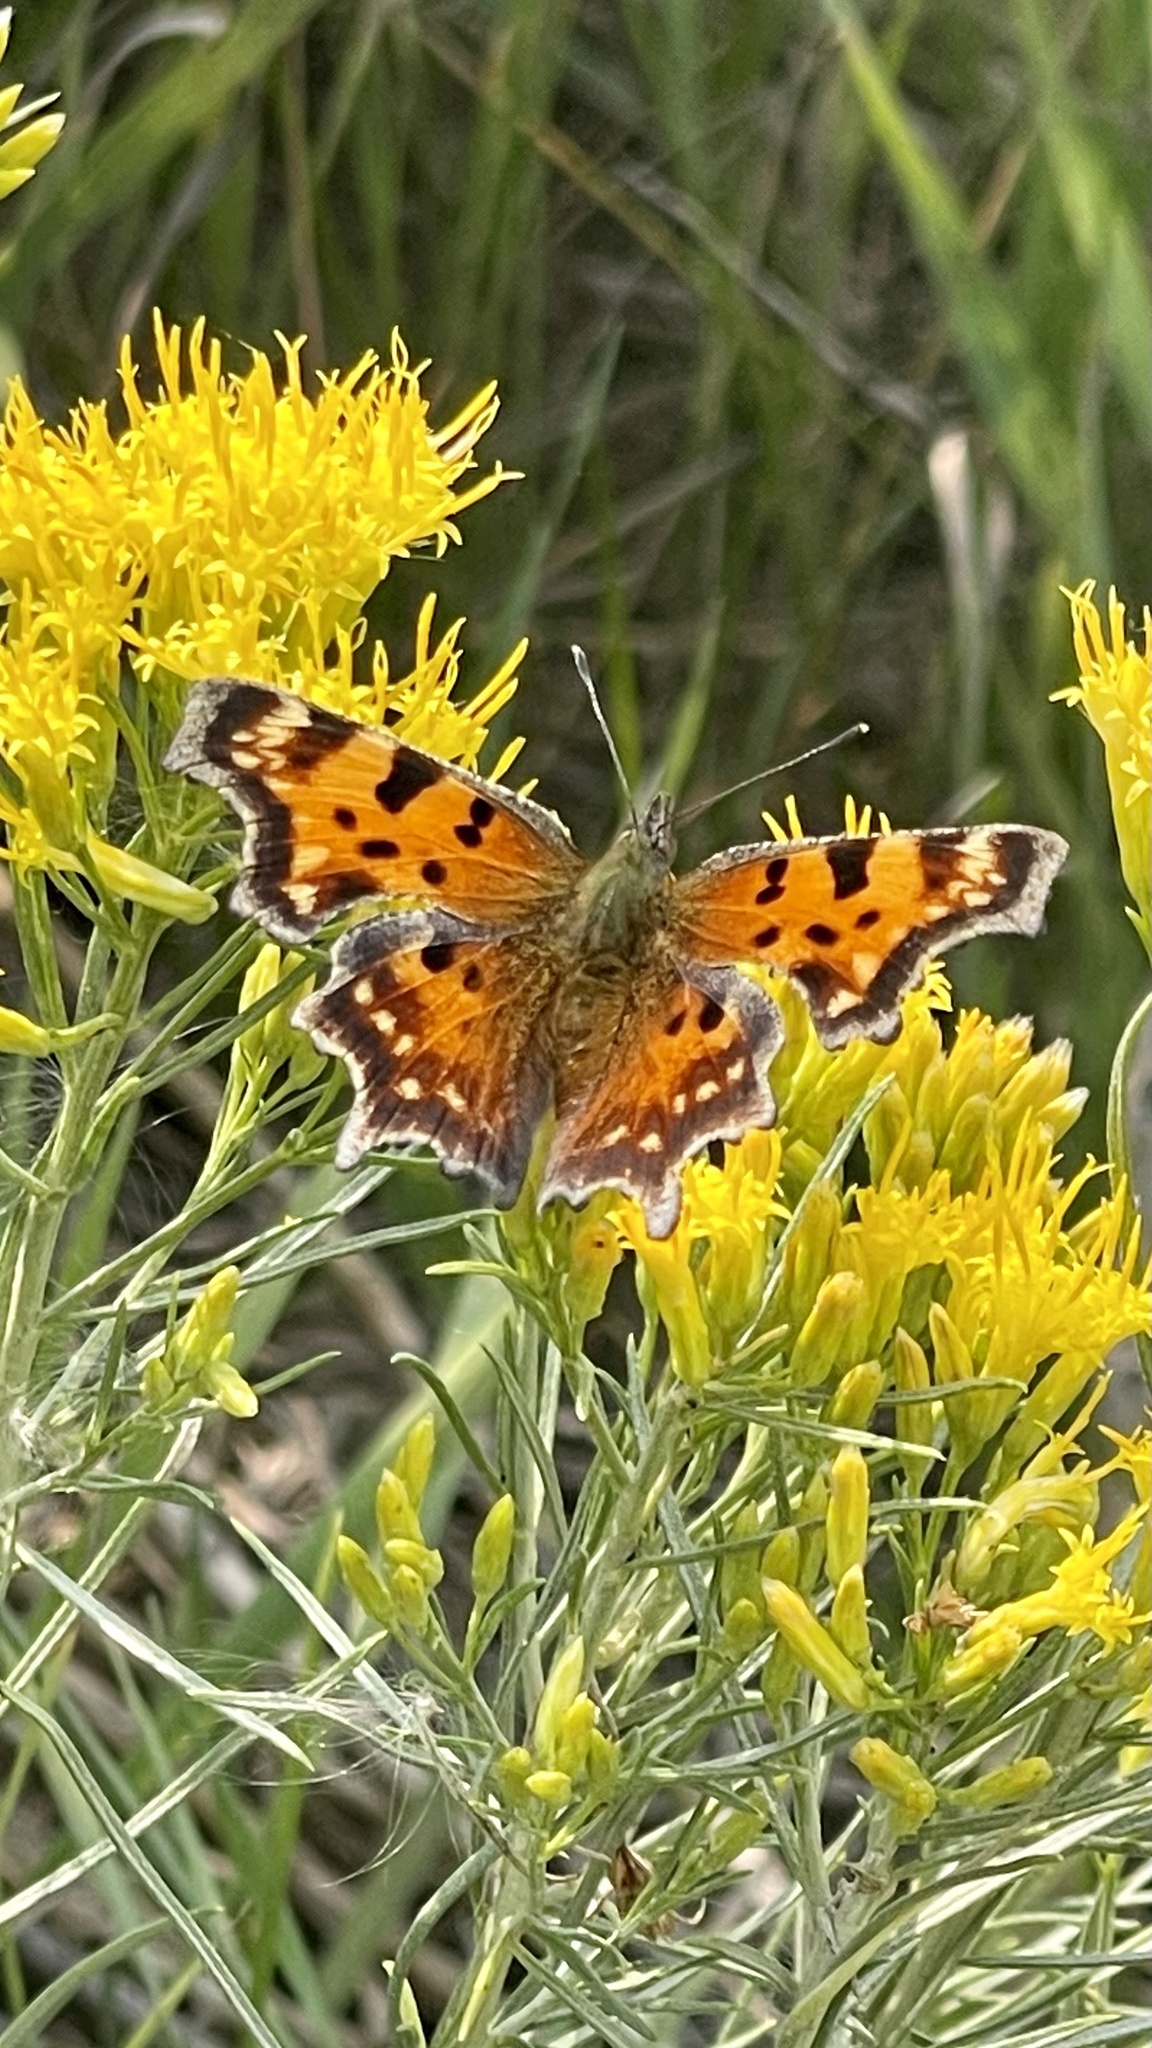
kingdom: Animalia
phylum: Arthropoda
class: Insecta
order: Lepidoptera
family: Nymphalidae
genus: Polygonia
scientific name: Polygonia faunus
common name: Green comma
